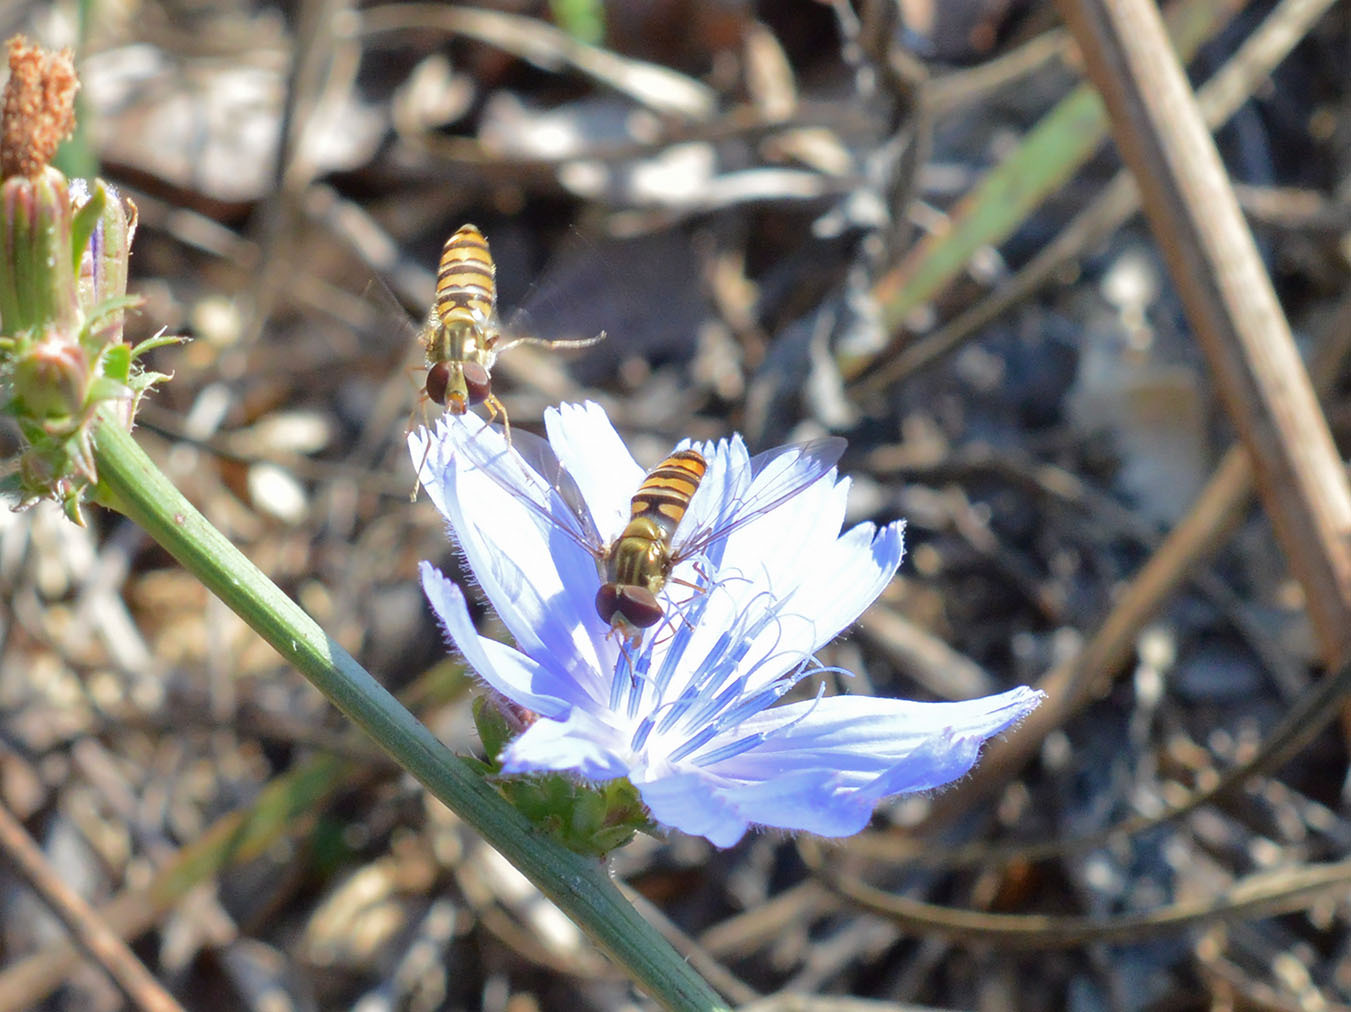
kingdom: Animalia
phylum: Arthropoda
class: Insecta
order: Diptera
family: Syrphidae
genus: Episyrphus
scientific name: Episyrphus balteatus
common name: Marmalade hoverfly
